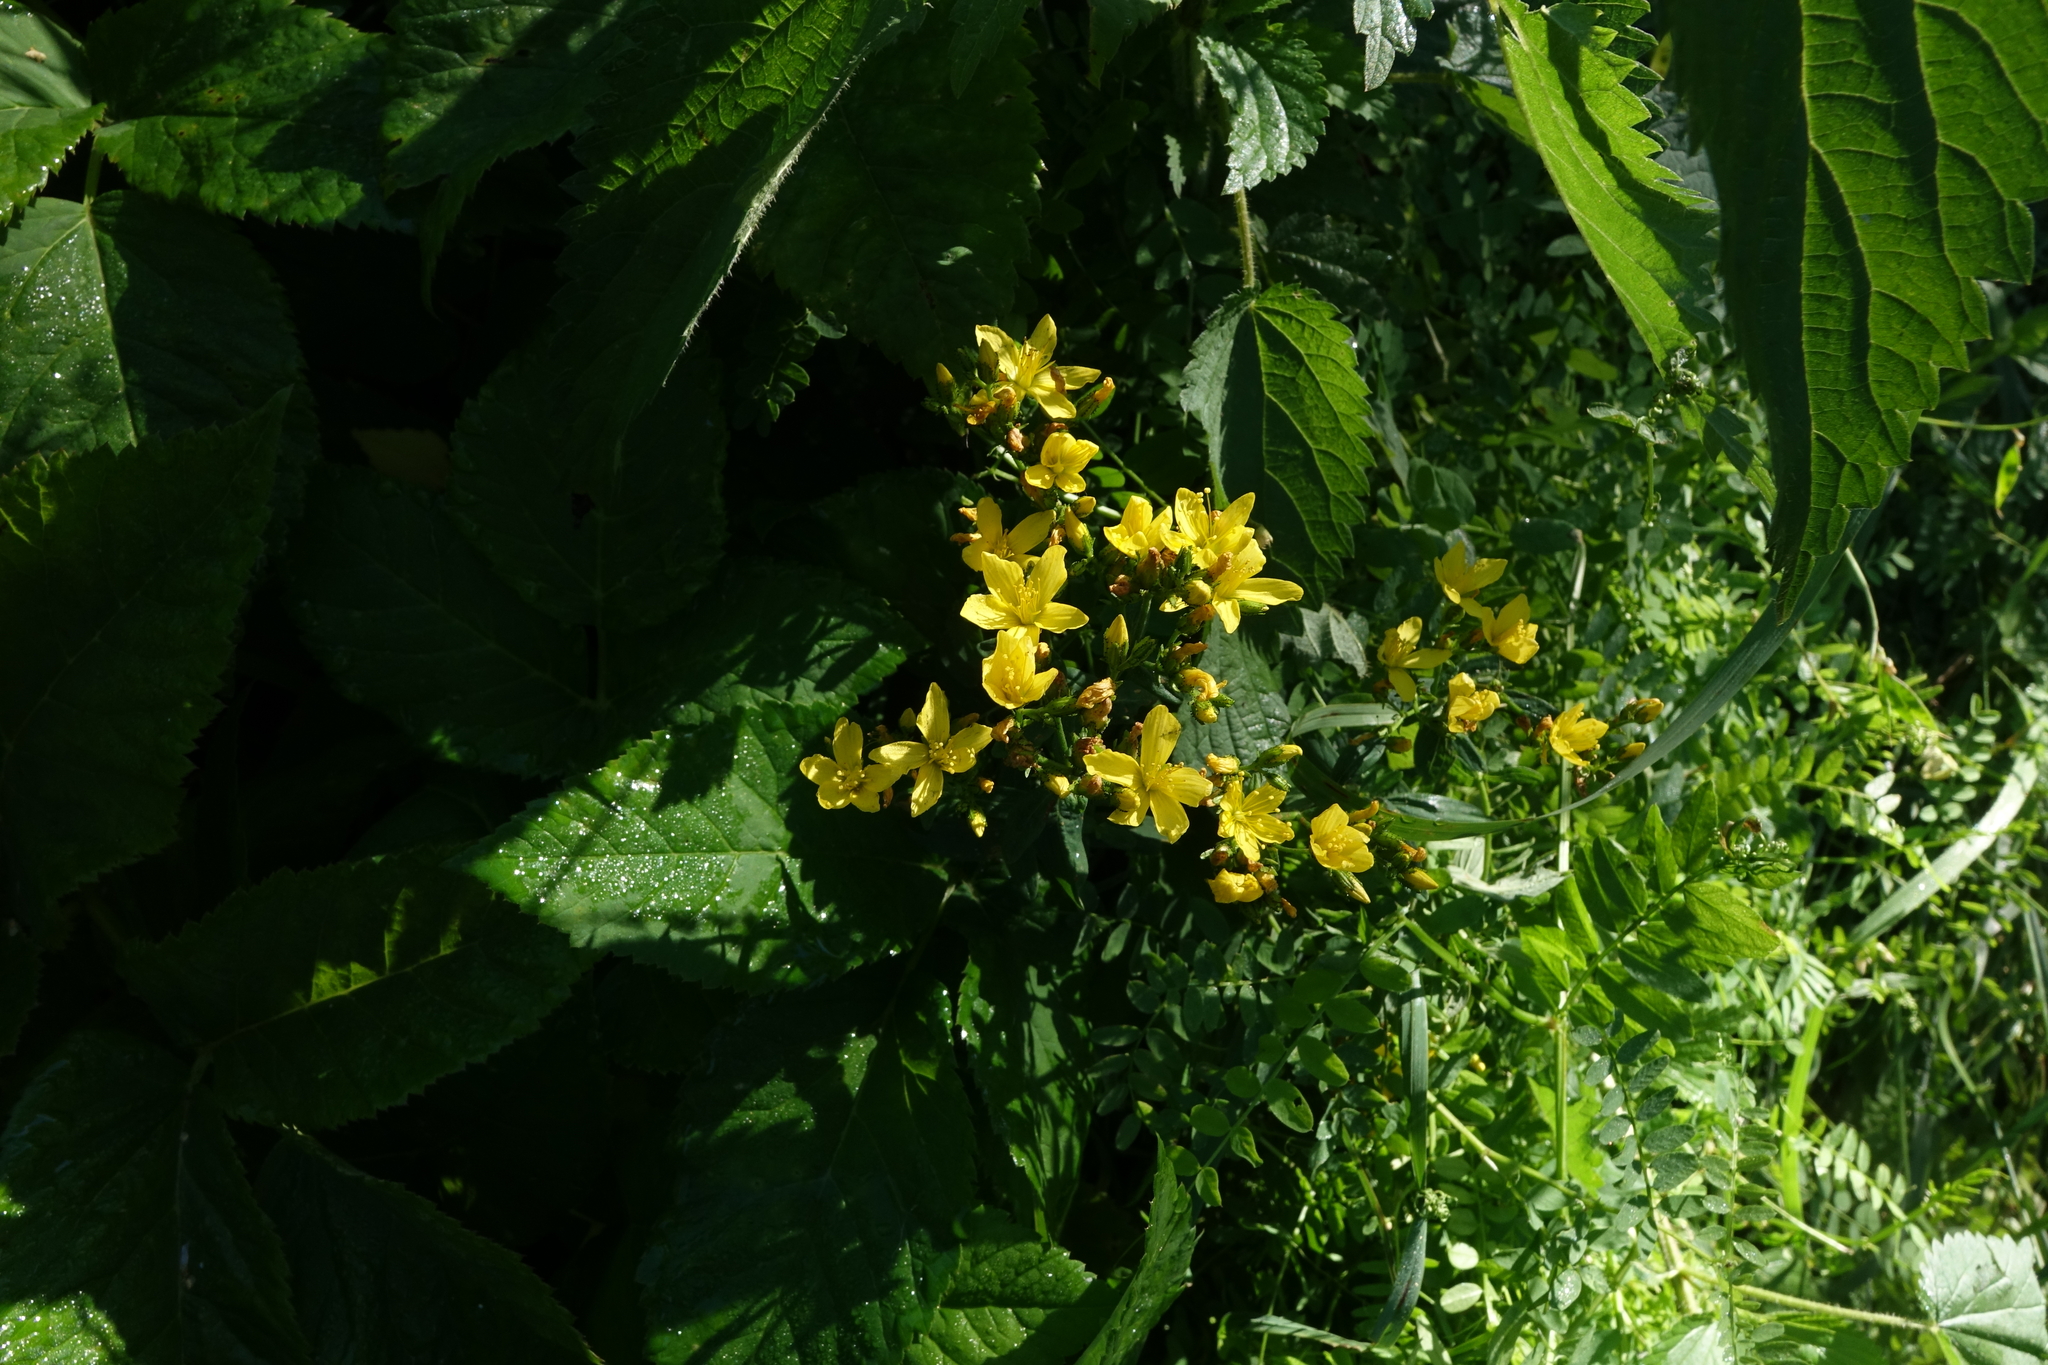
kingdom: Plantae
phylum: Tracheophyta
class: Magnoliopsida
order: Malpighiales
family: Hypericaceae
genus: Hypericum
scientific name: Hypericum elegans
